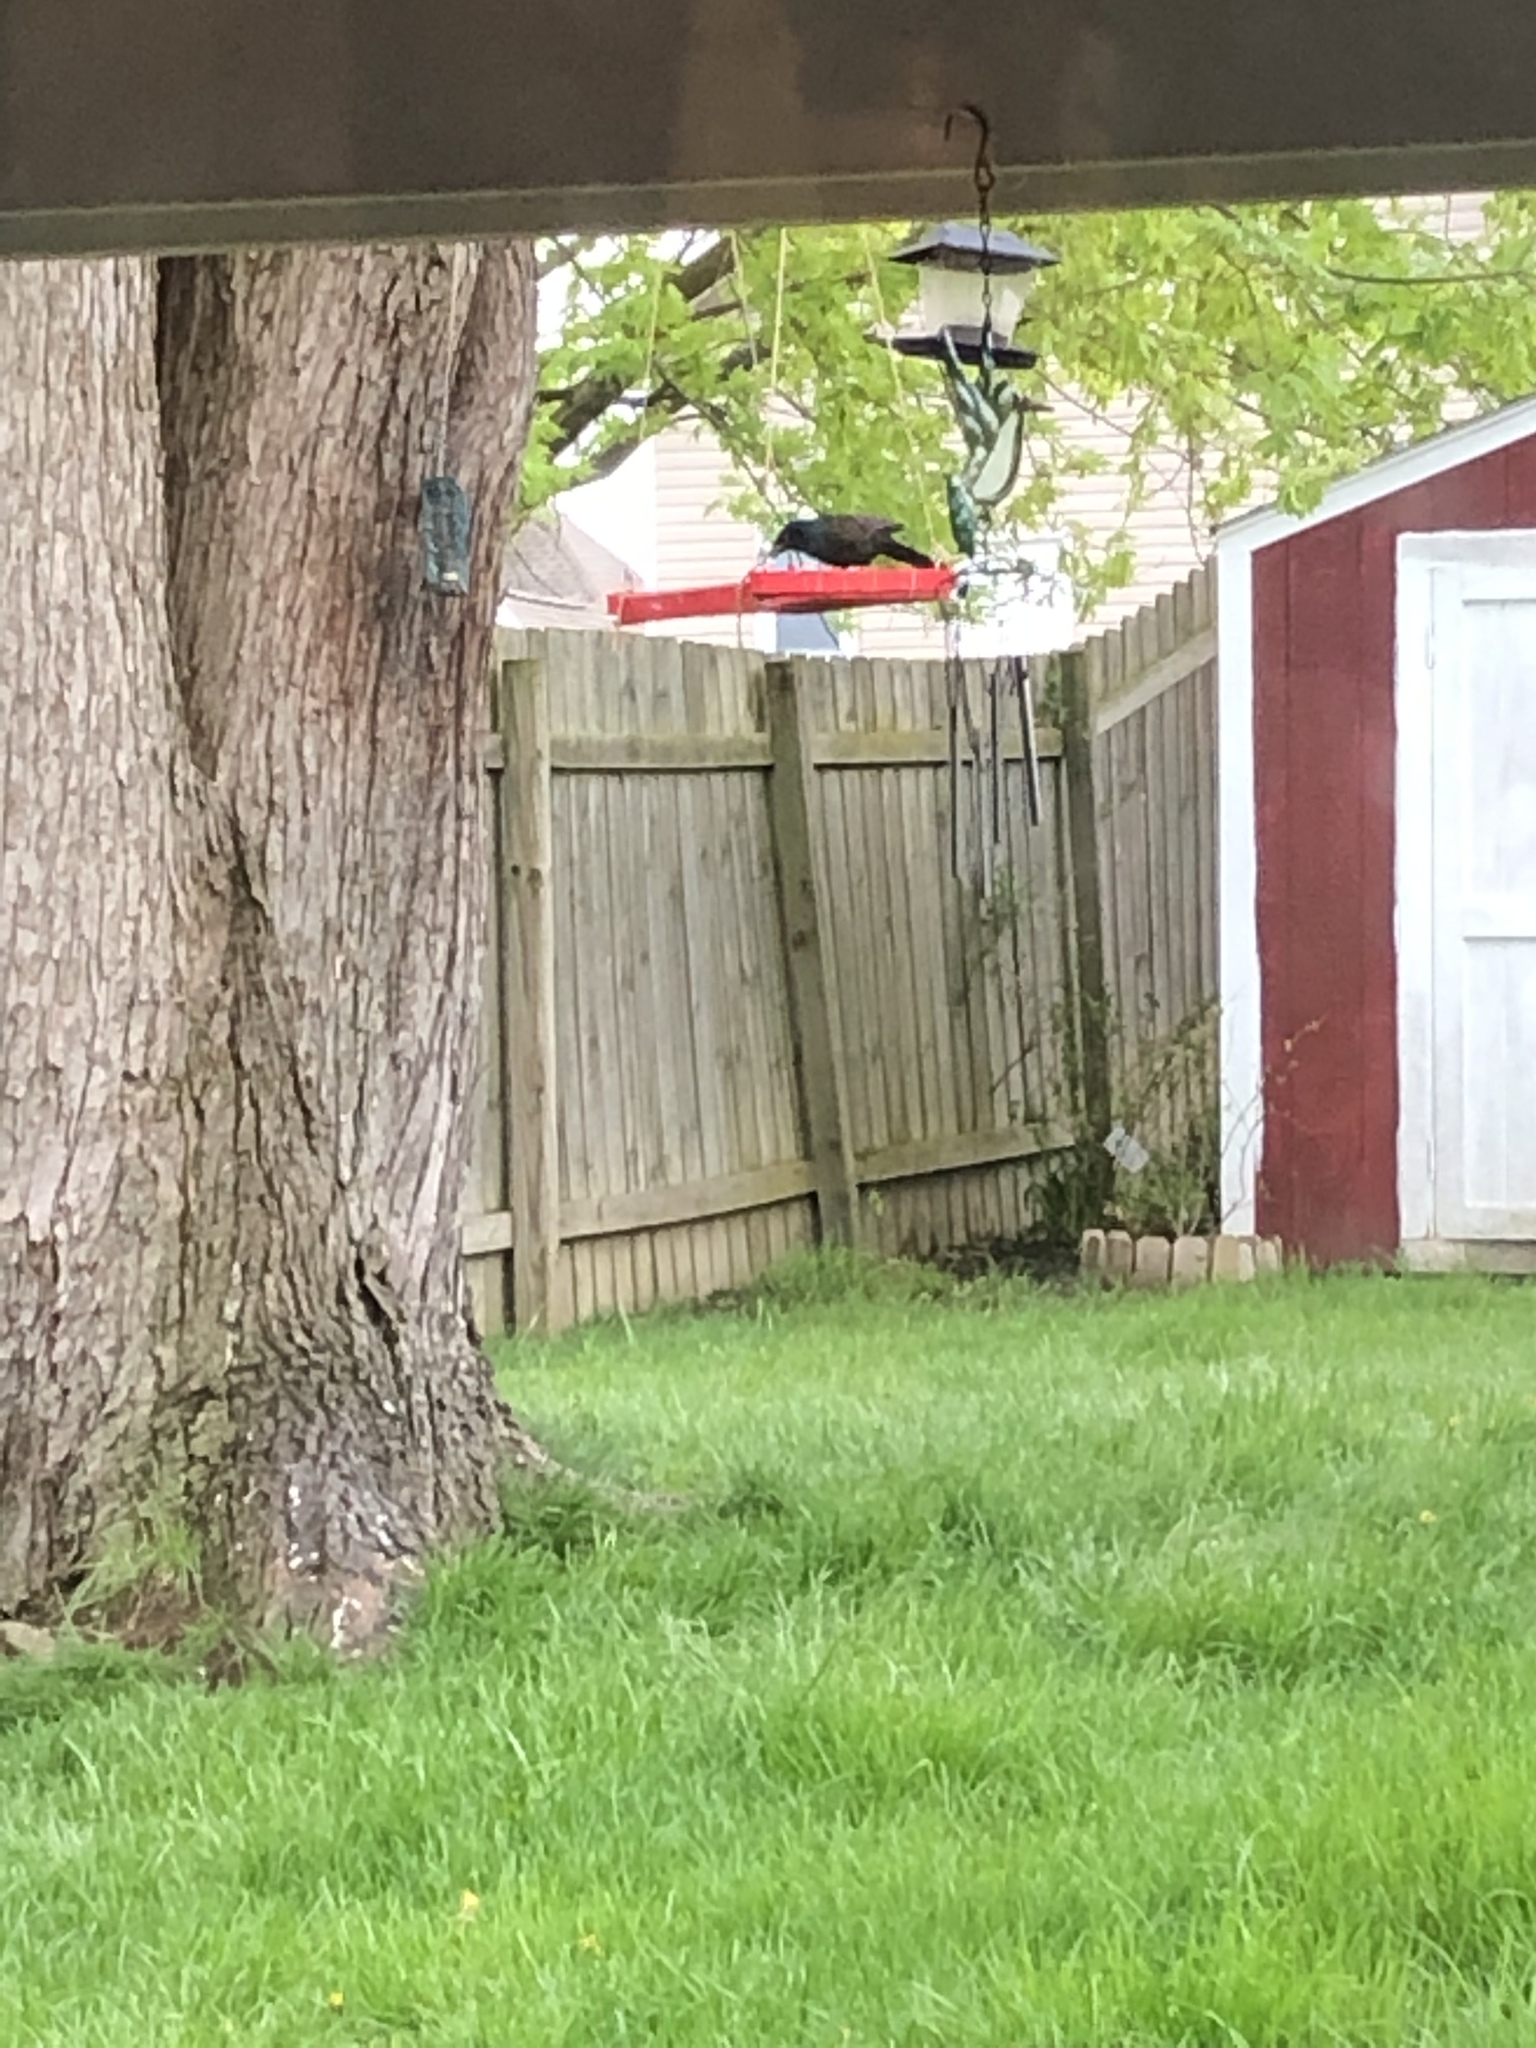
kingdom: Animalia
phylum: Chordata
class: Aves
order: Passeriformes
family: Icteridae
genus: Quiscalus
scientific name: Quiscalus quiscula
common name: Common grackle
